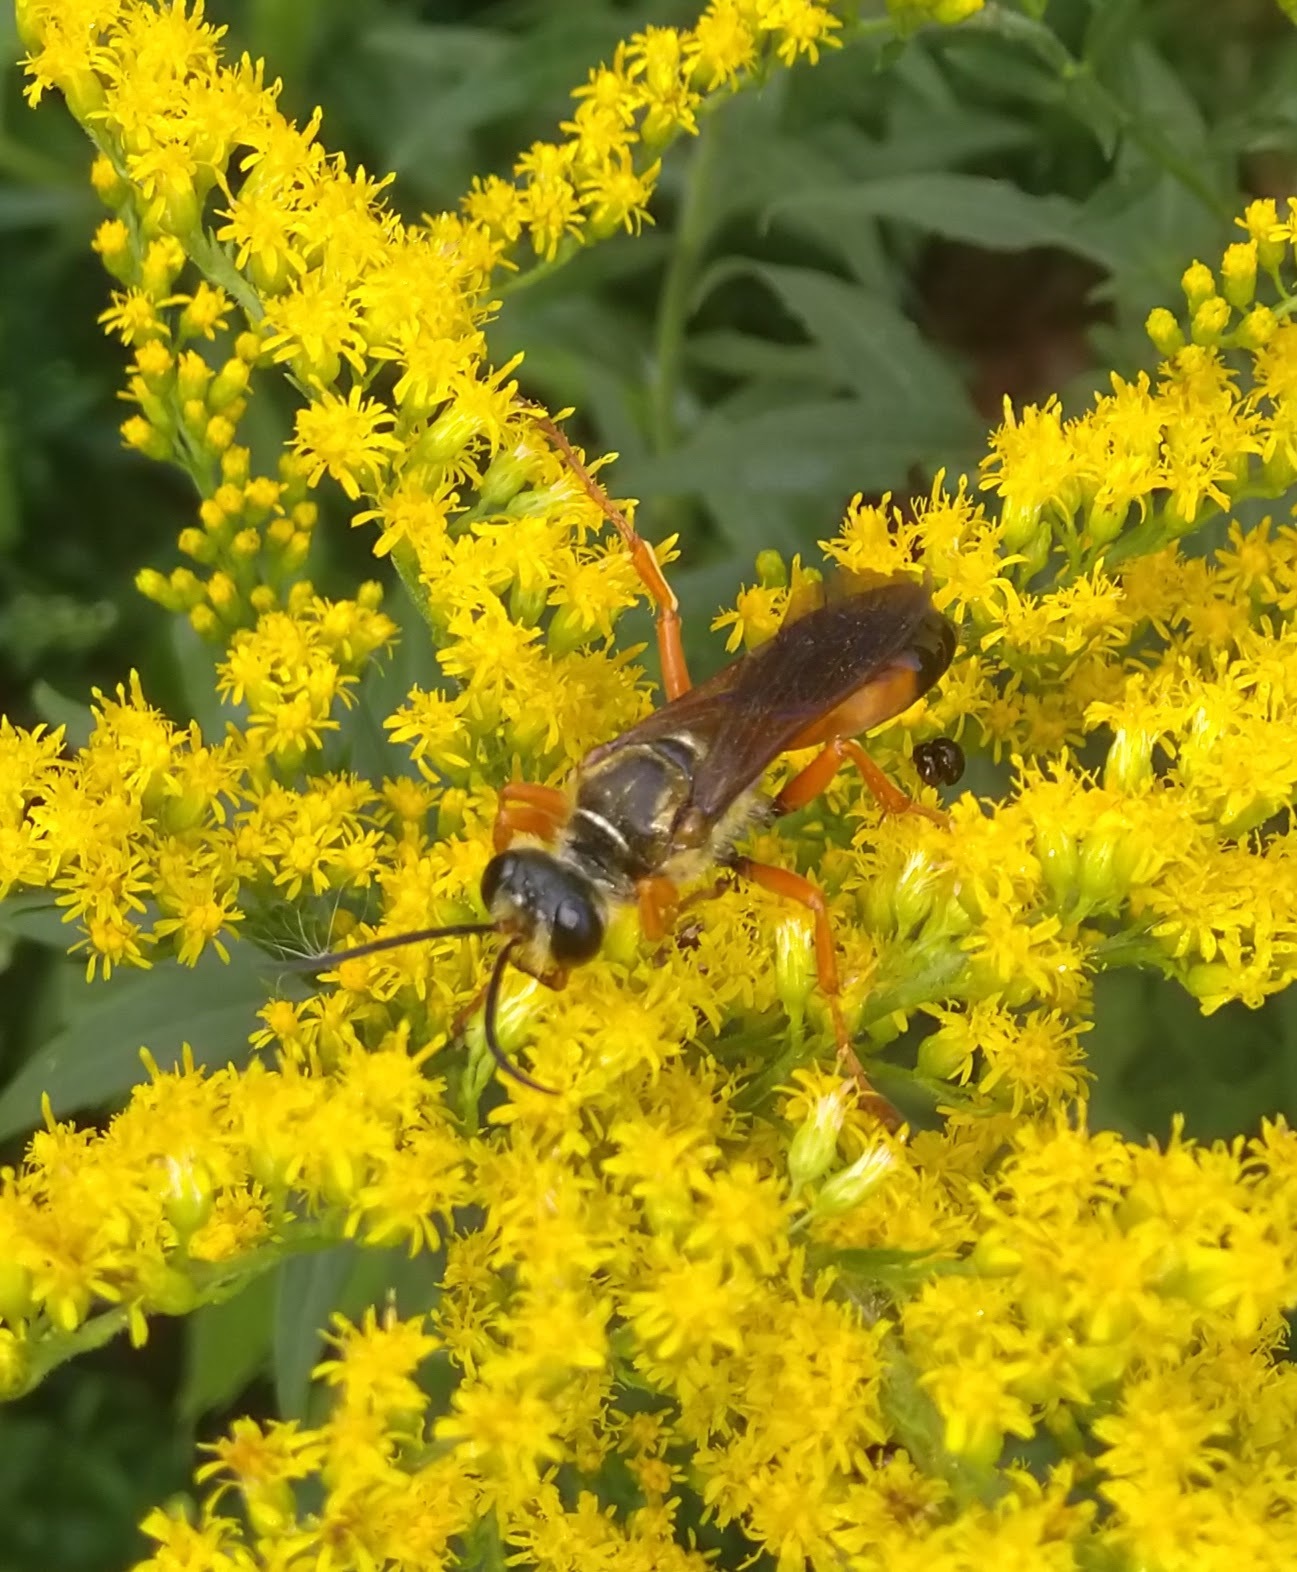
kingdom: Animalia
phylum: Arthropoda
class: Insecta
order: Hymenoptera
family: Sphecidae
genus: Sphex
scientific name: Sphex ichneumoneus
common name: Great golden digger wasp
